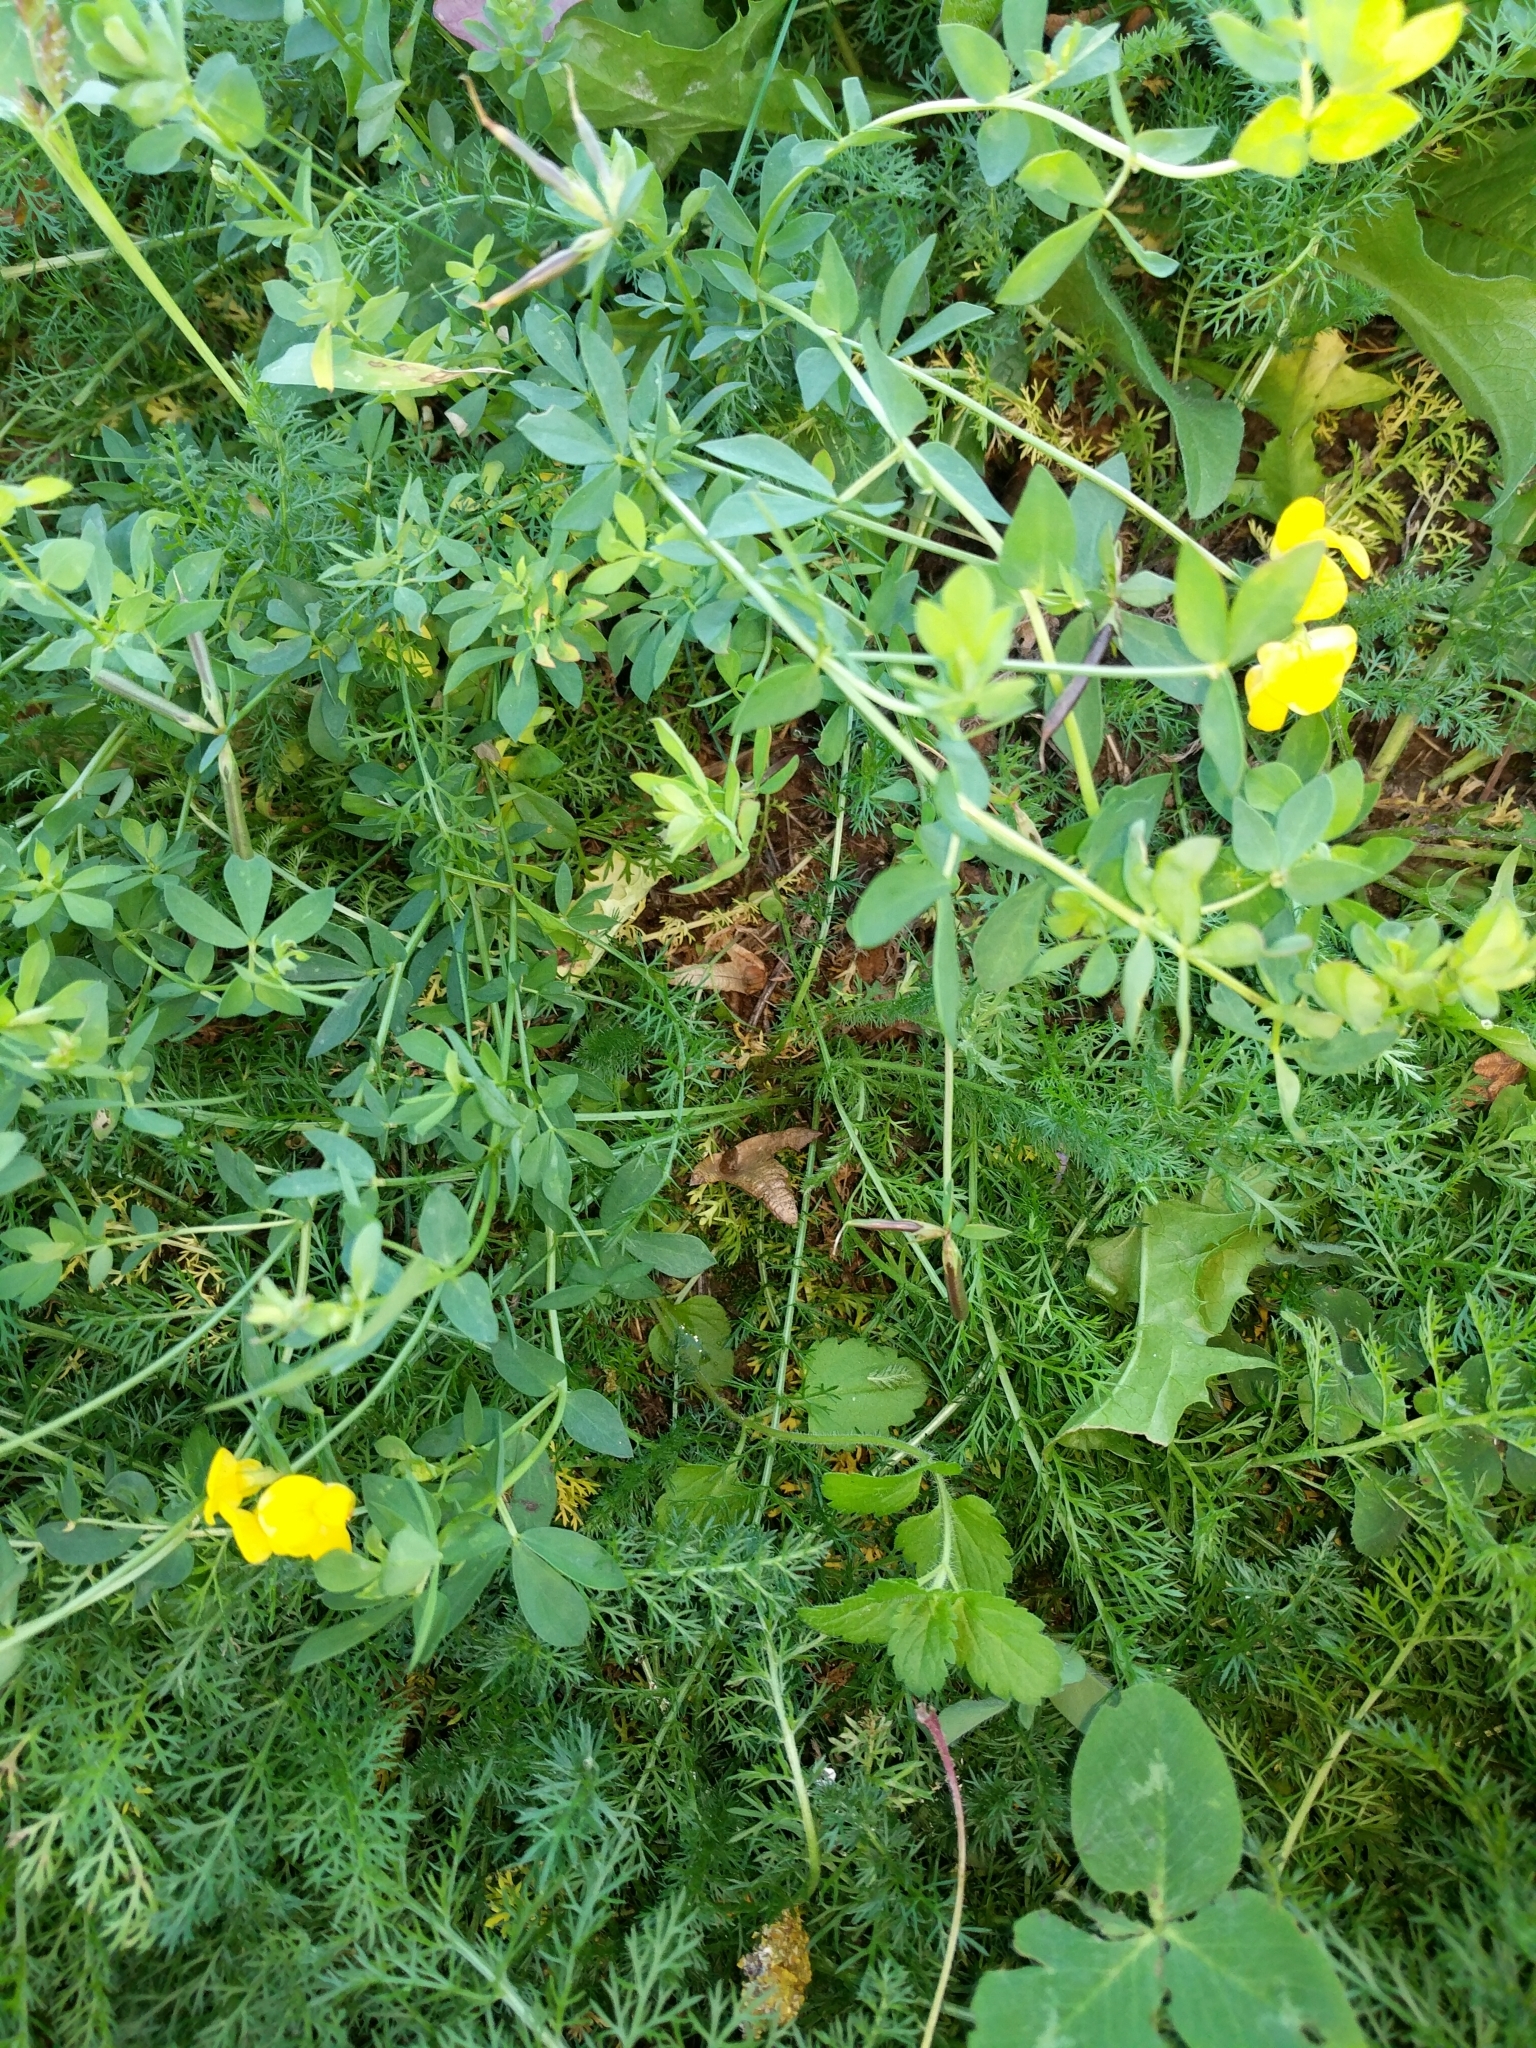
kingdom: Plantae
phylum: Tracheophyta
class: Magnoliopsida
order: Fabales
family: Fabaceae
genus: Lotus
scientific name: Lotus corniculatus
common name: Common bird's-foot-trefoil
